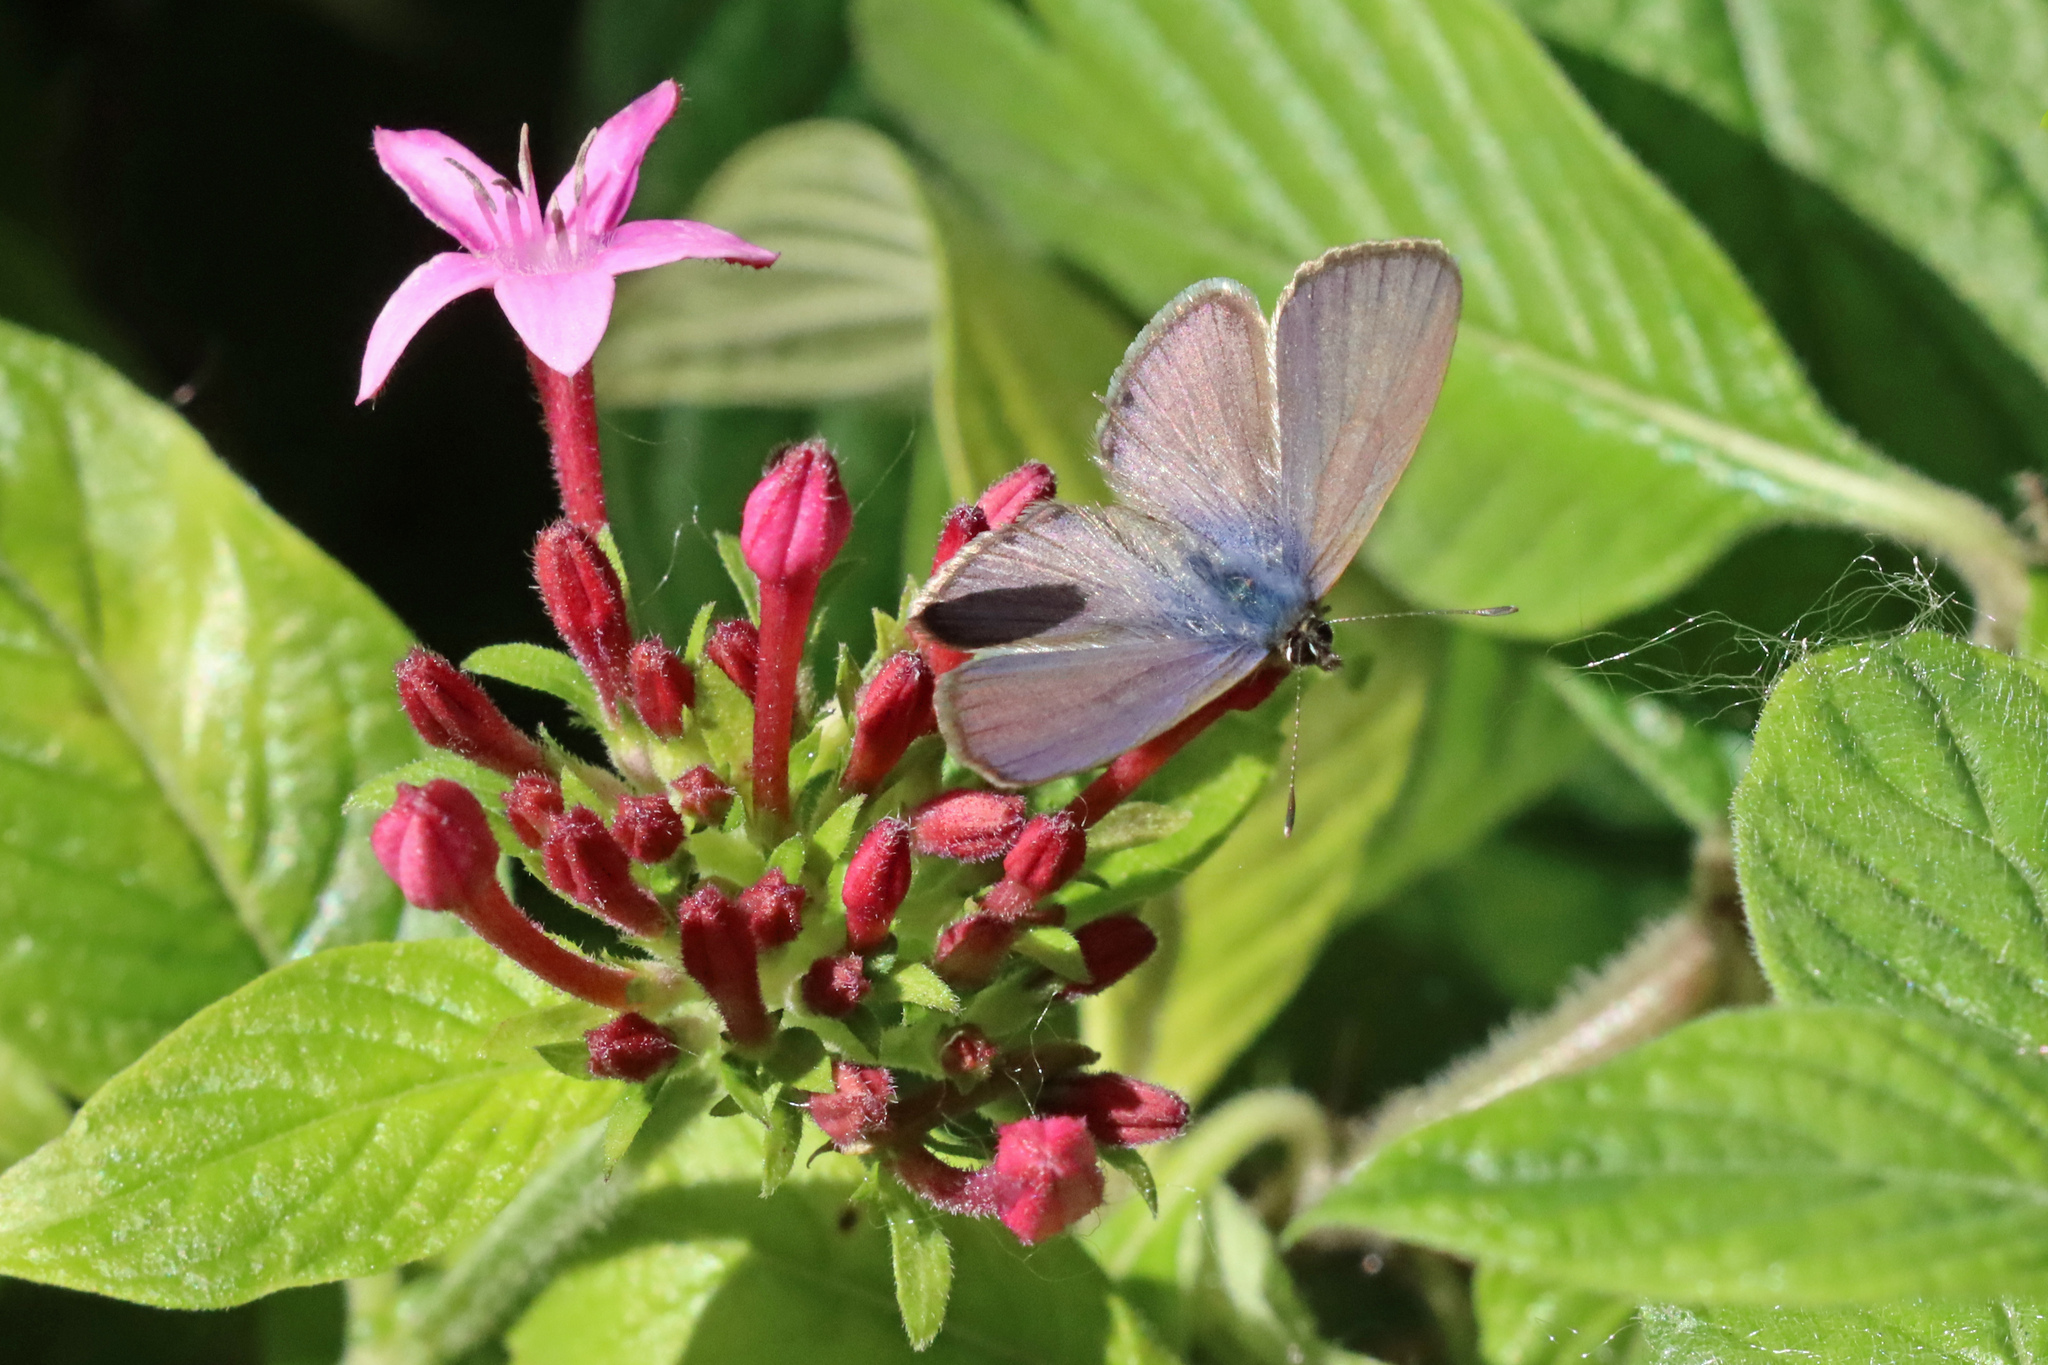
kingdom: Animalia
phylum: Arthropoda
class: Insecta
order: Lepidoptera
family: Lycaenidae
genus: Leptotes
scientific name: Leptotes pirithous
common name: Lang's short-tailed blue
